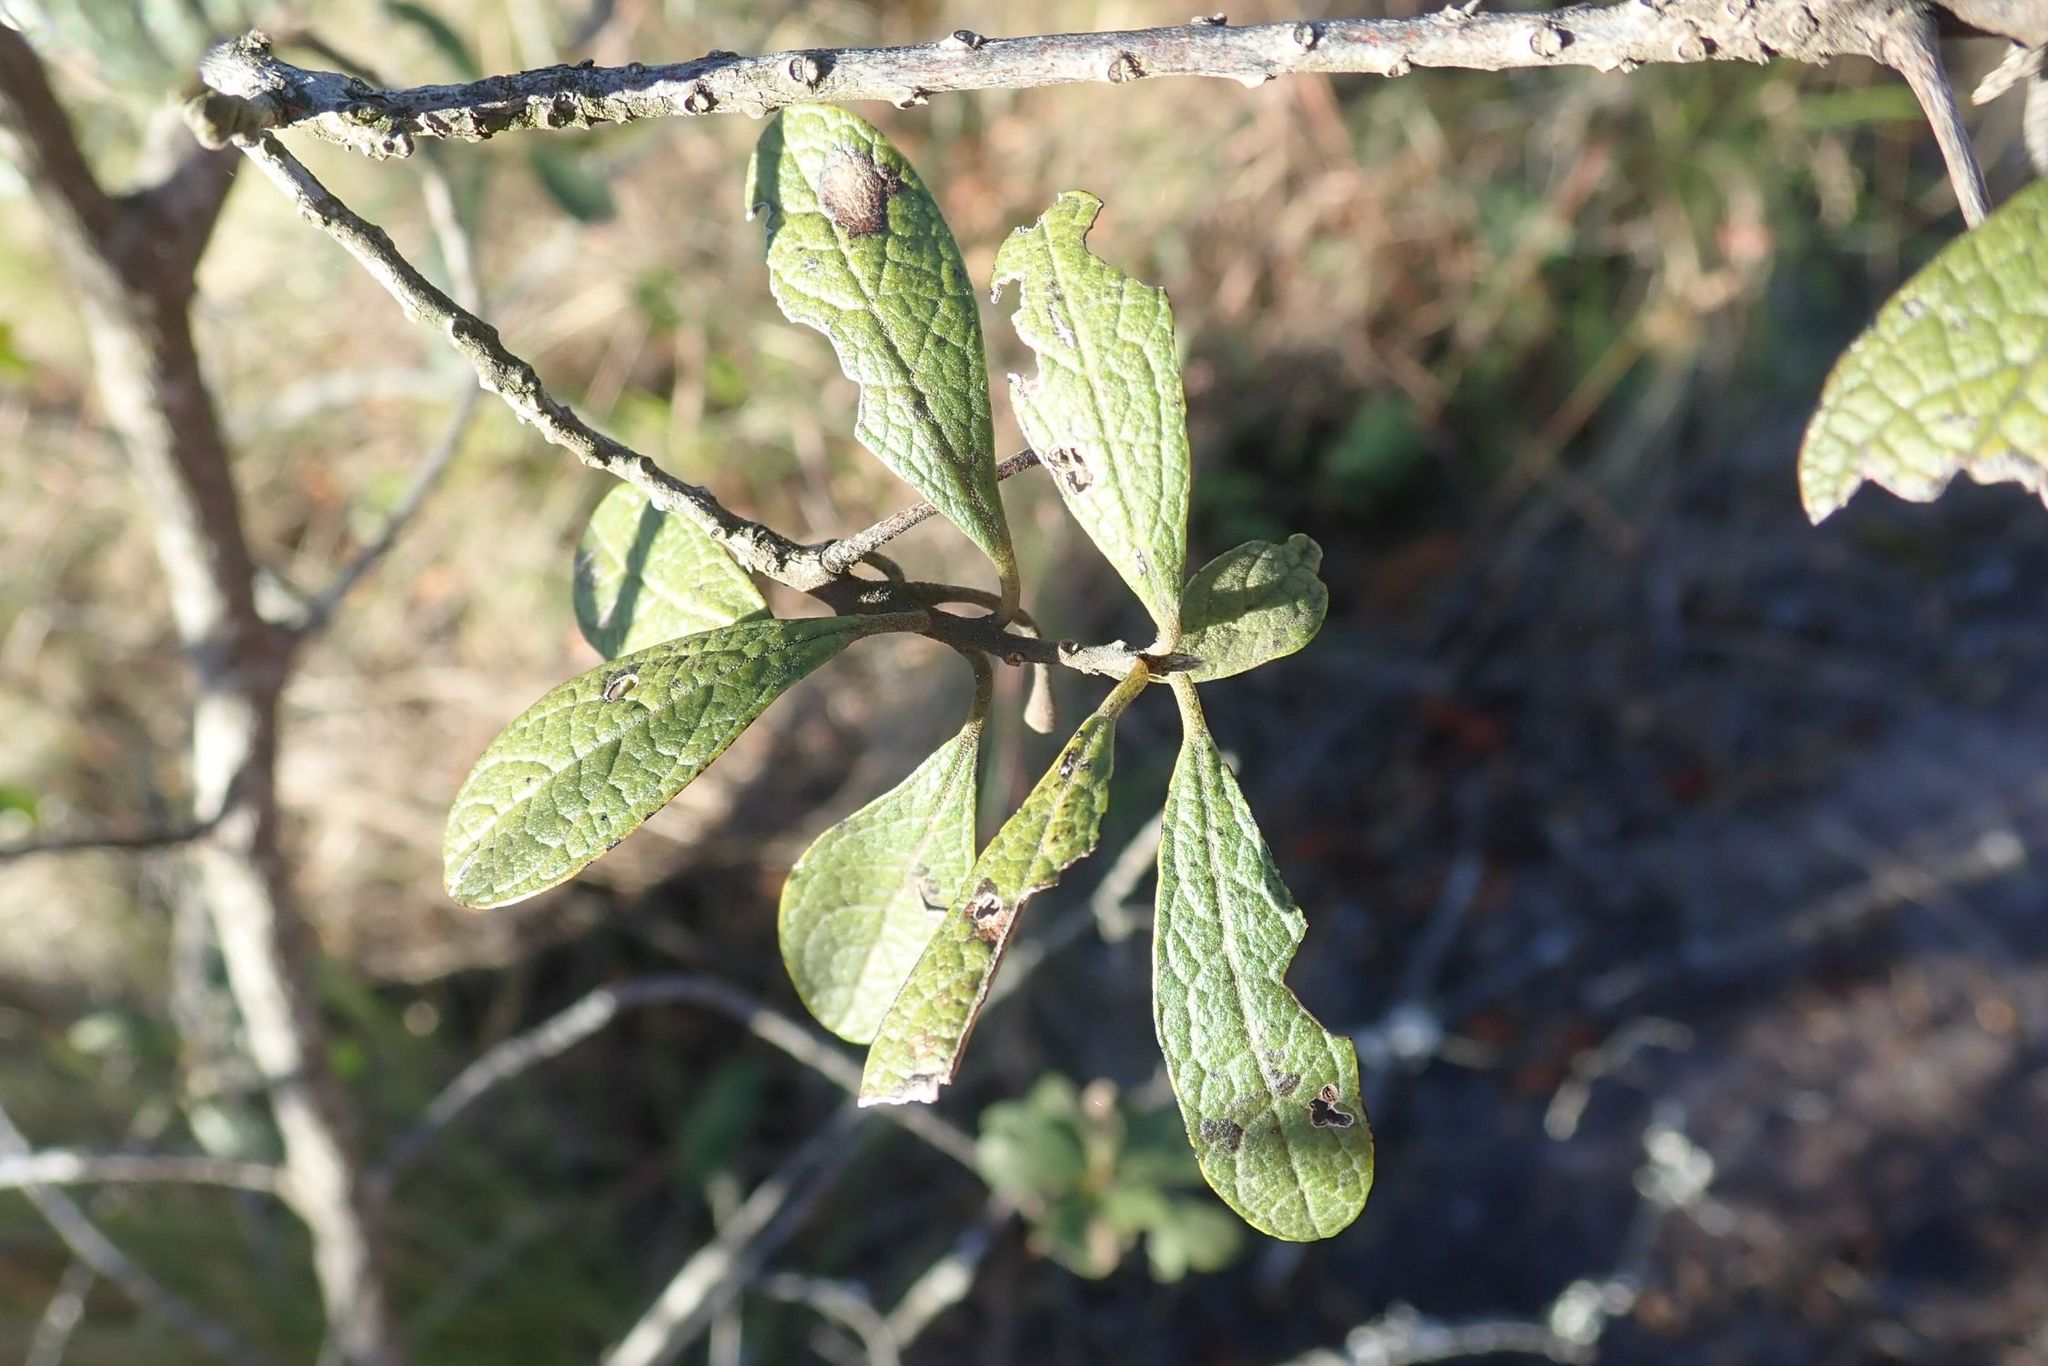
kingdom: Plantae
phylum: Tracheophyta
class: Magnoliopsida
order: Ericales
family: Ebenaceae
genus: Diospyros
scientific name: Diospyros lycioides
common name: Red star apple
